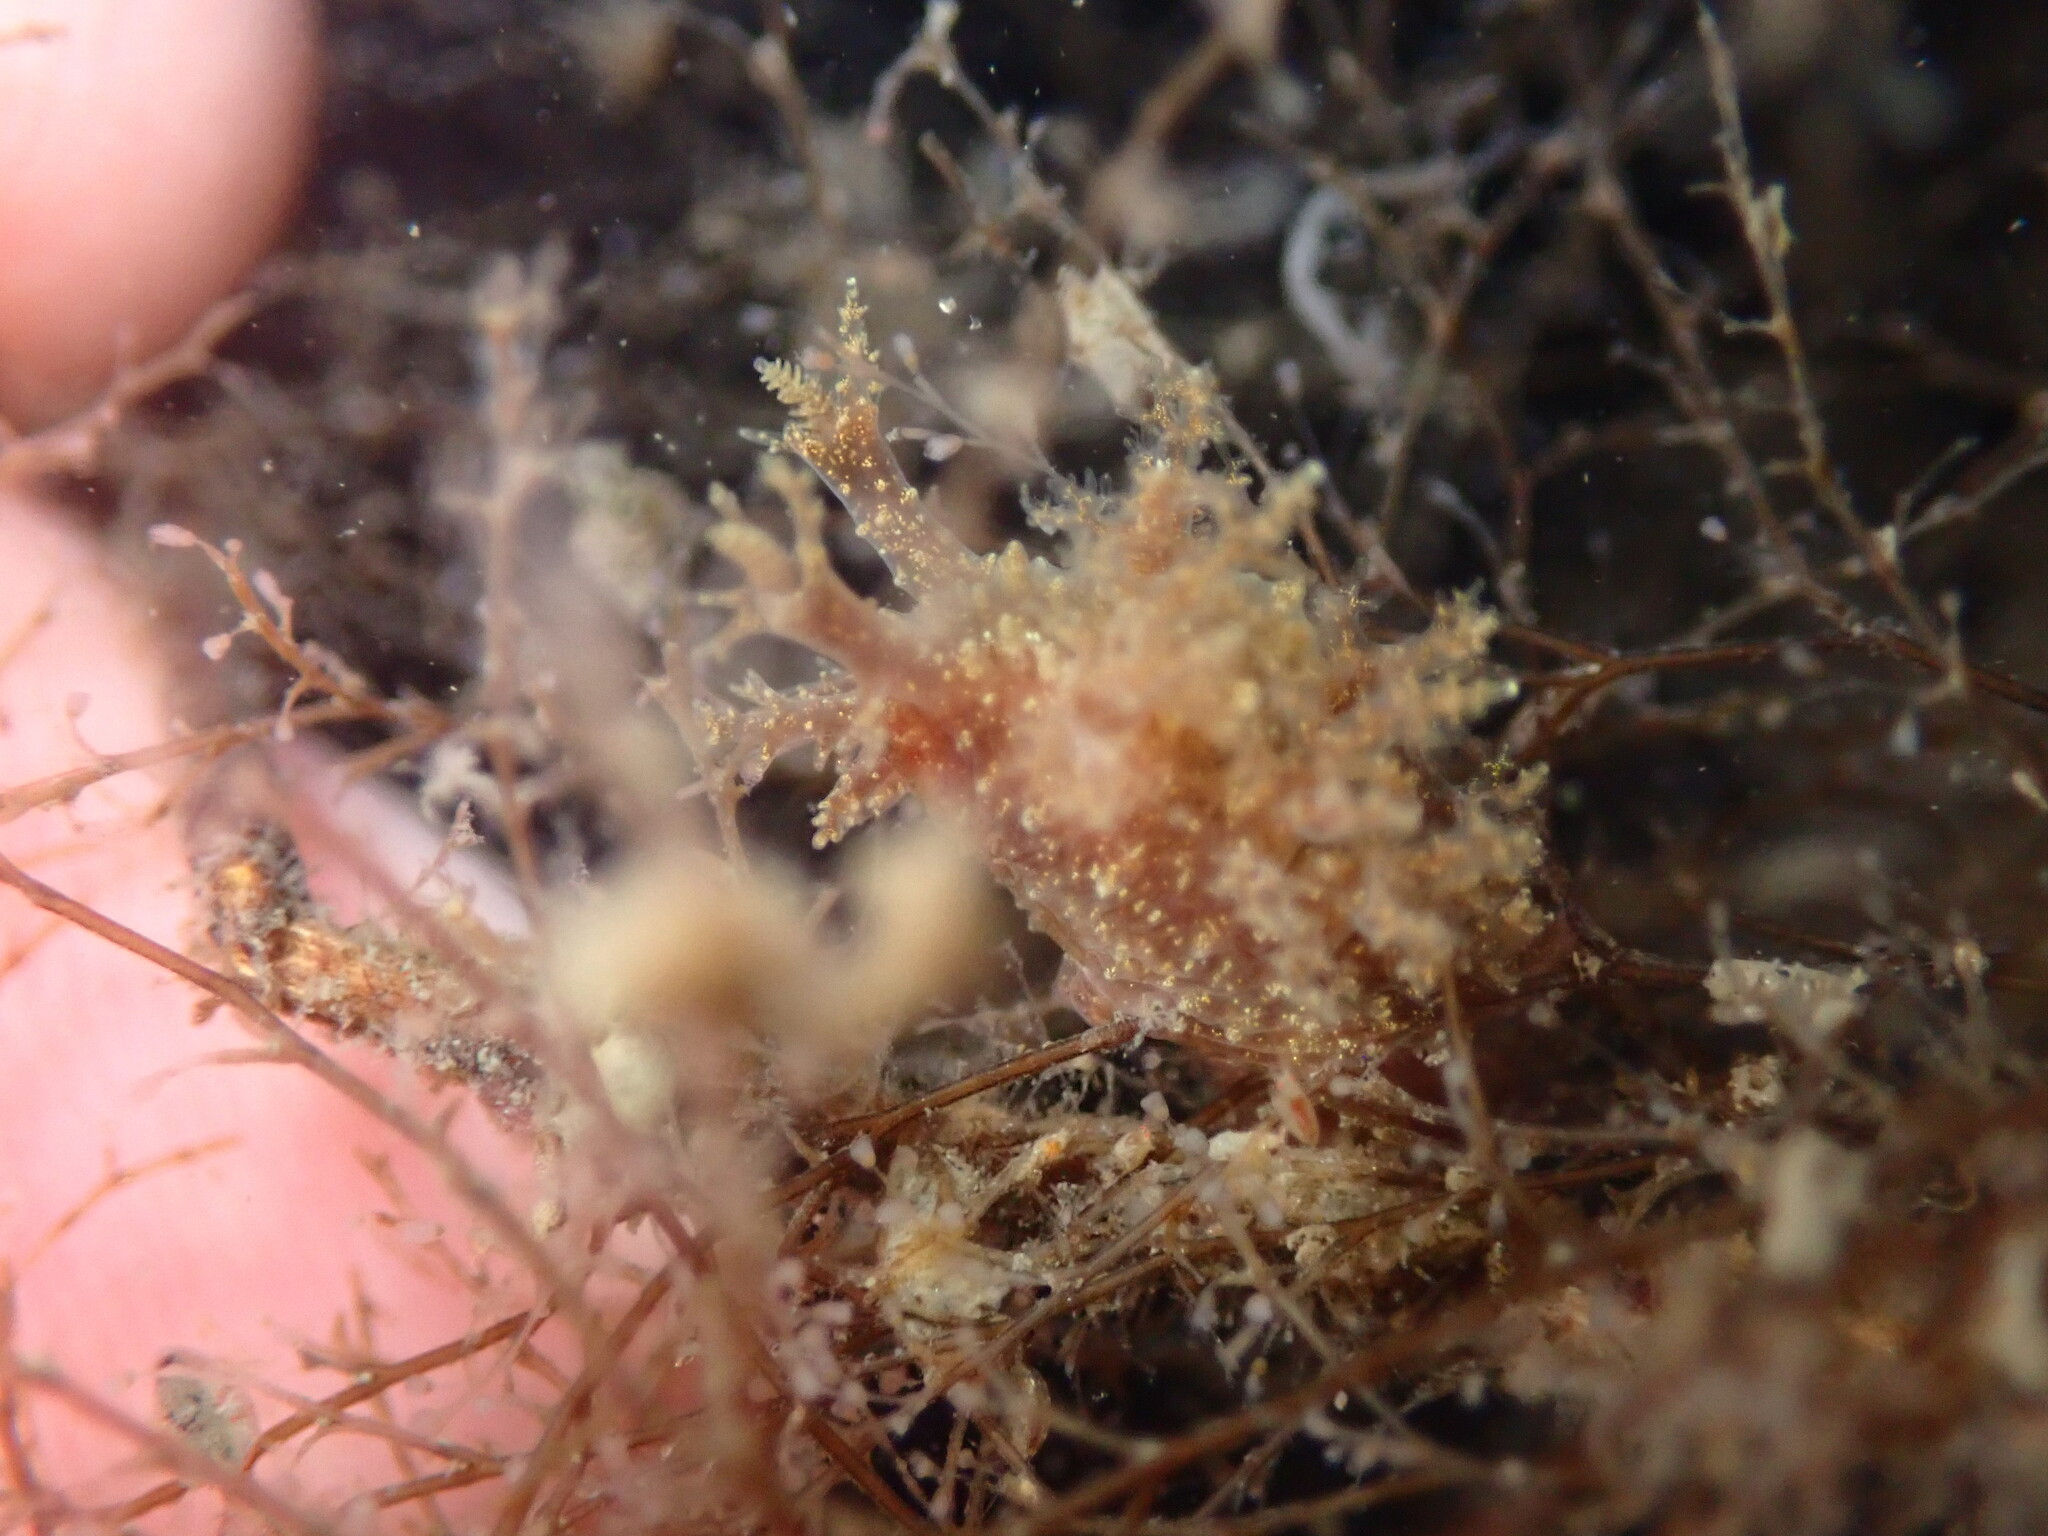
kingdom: Animalia
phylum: Mollusca
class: Gastropoda
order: Nudibranchia
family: Dendronotidae
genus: Dendronotus
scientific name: Dendronotus venustus
